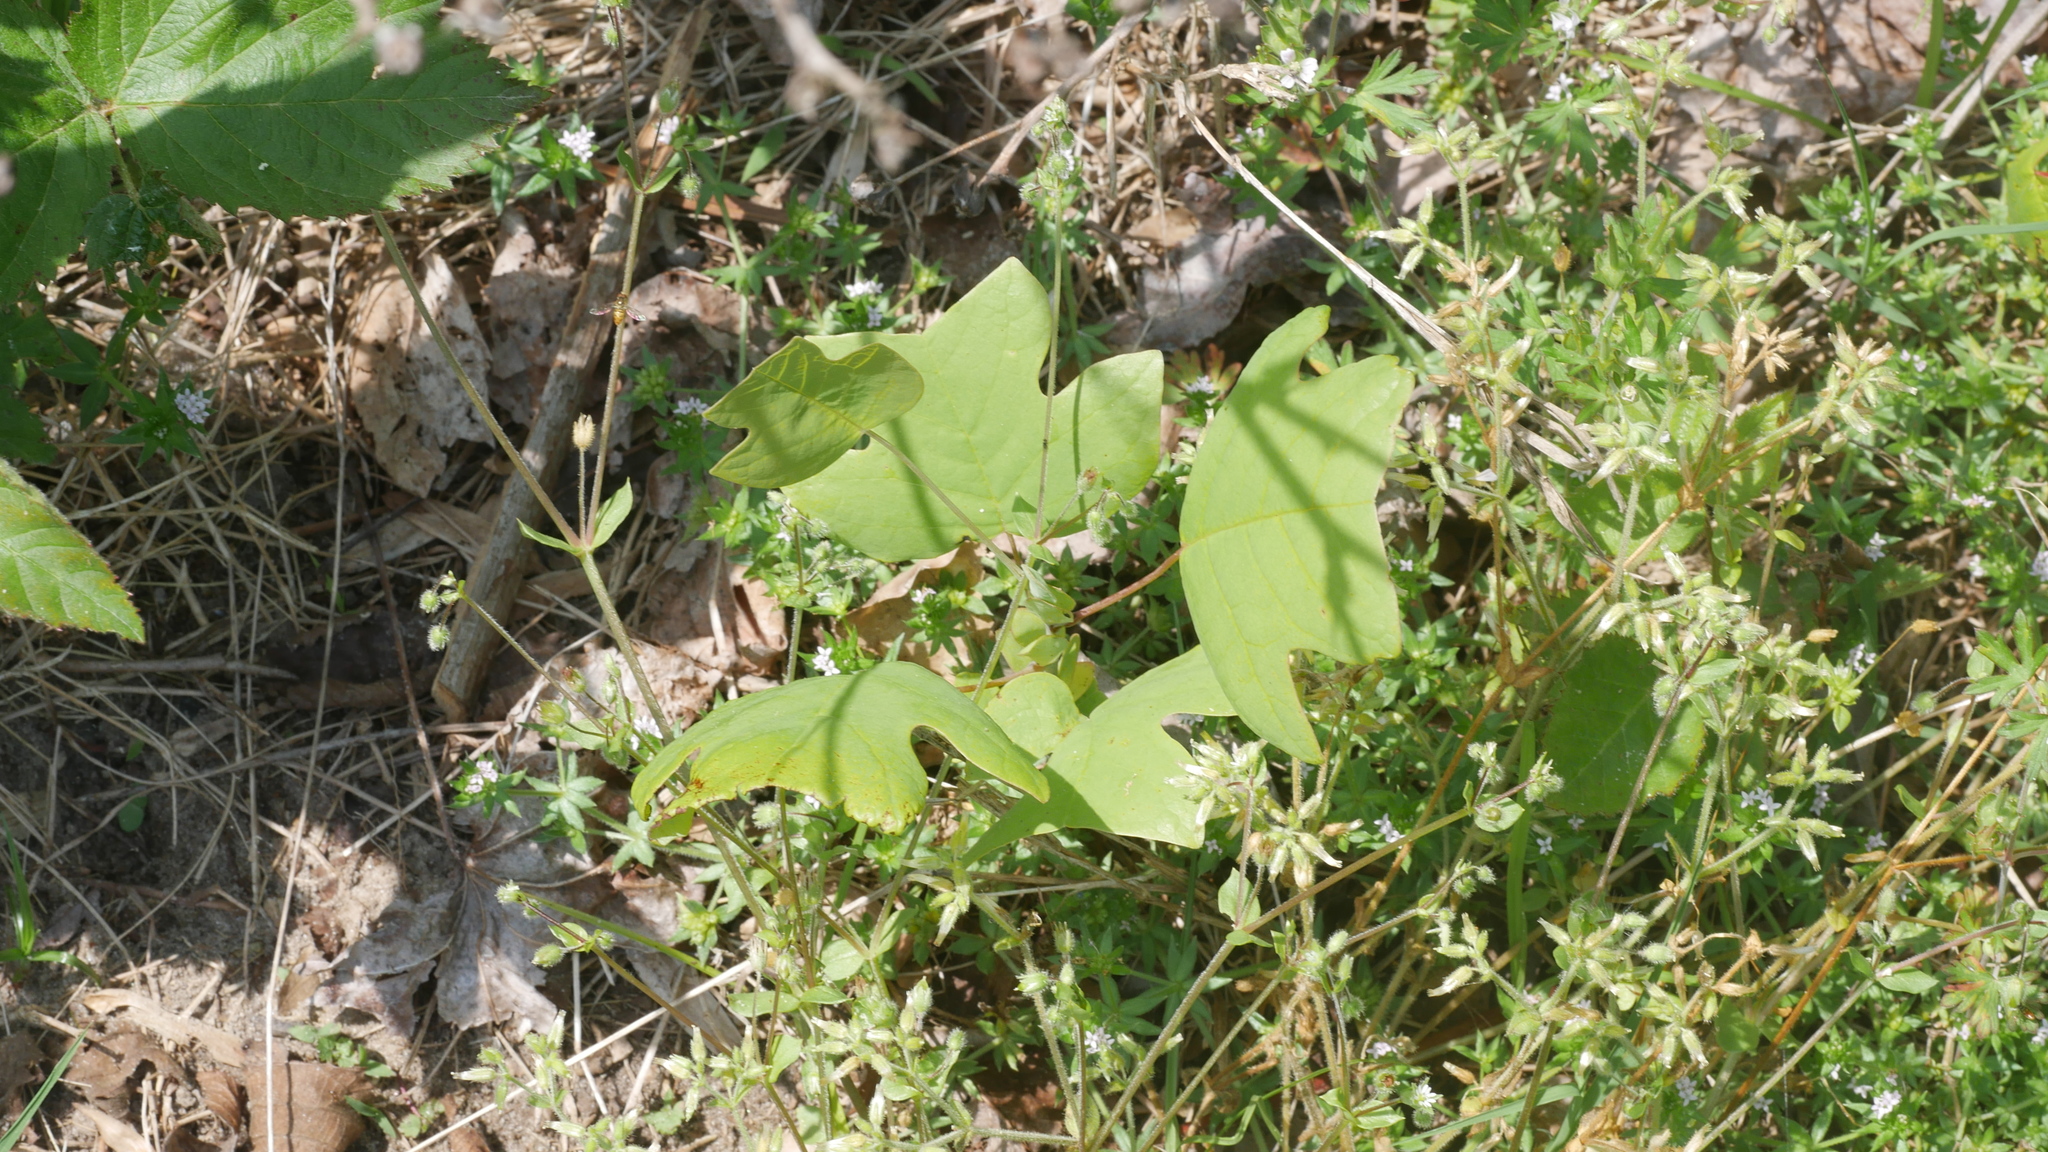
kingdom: Plantae
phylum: Tracheophyta
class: Magnoliopsida
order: Magnoliales
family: Magnoliaceae
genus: Liriodendron
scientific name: Liriodendron tulipifera
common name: Tulip tree
